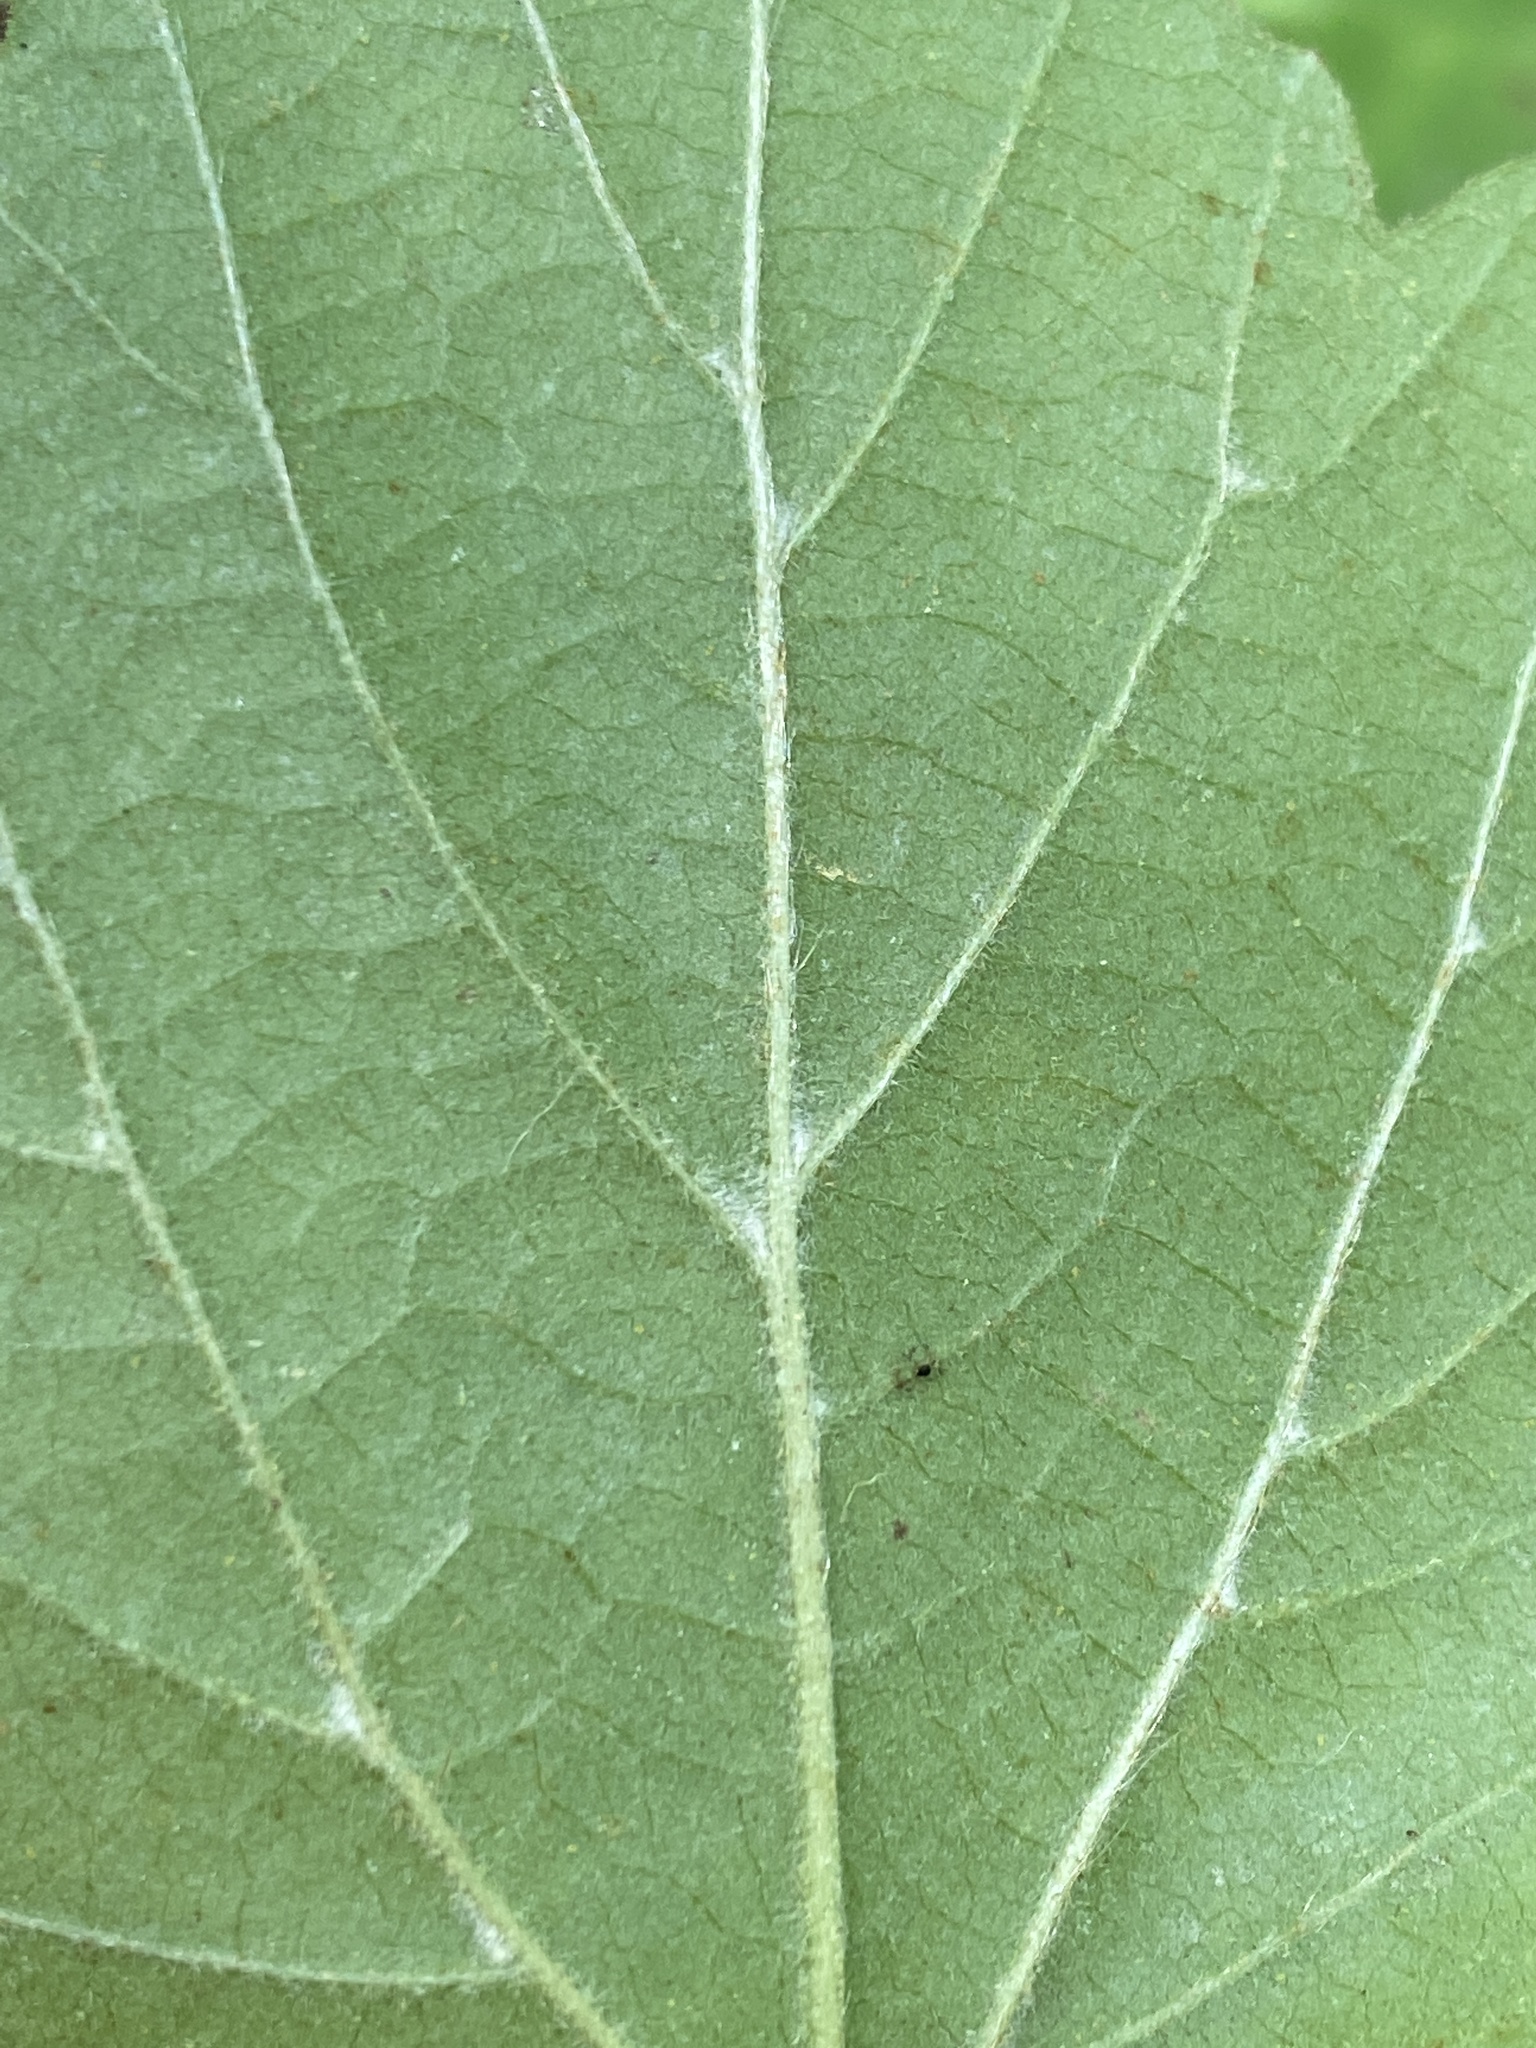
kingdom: Plantae
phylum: Tracheophyta
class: Magnoliopsida
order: Dipsacales
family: Viburnaceae
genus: Viburnum
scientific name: Viburnum acerifolium
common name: Dockmackie
